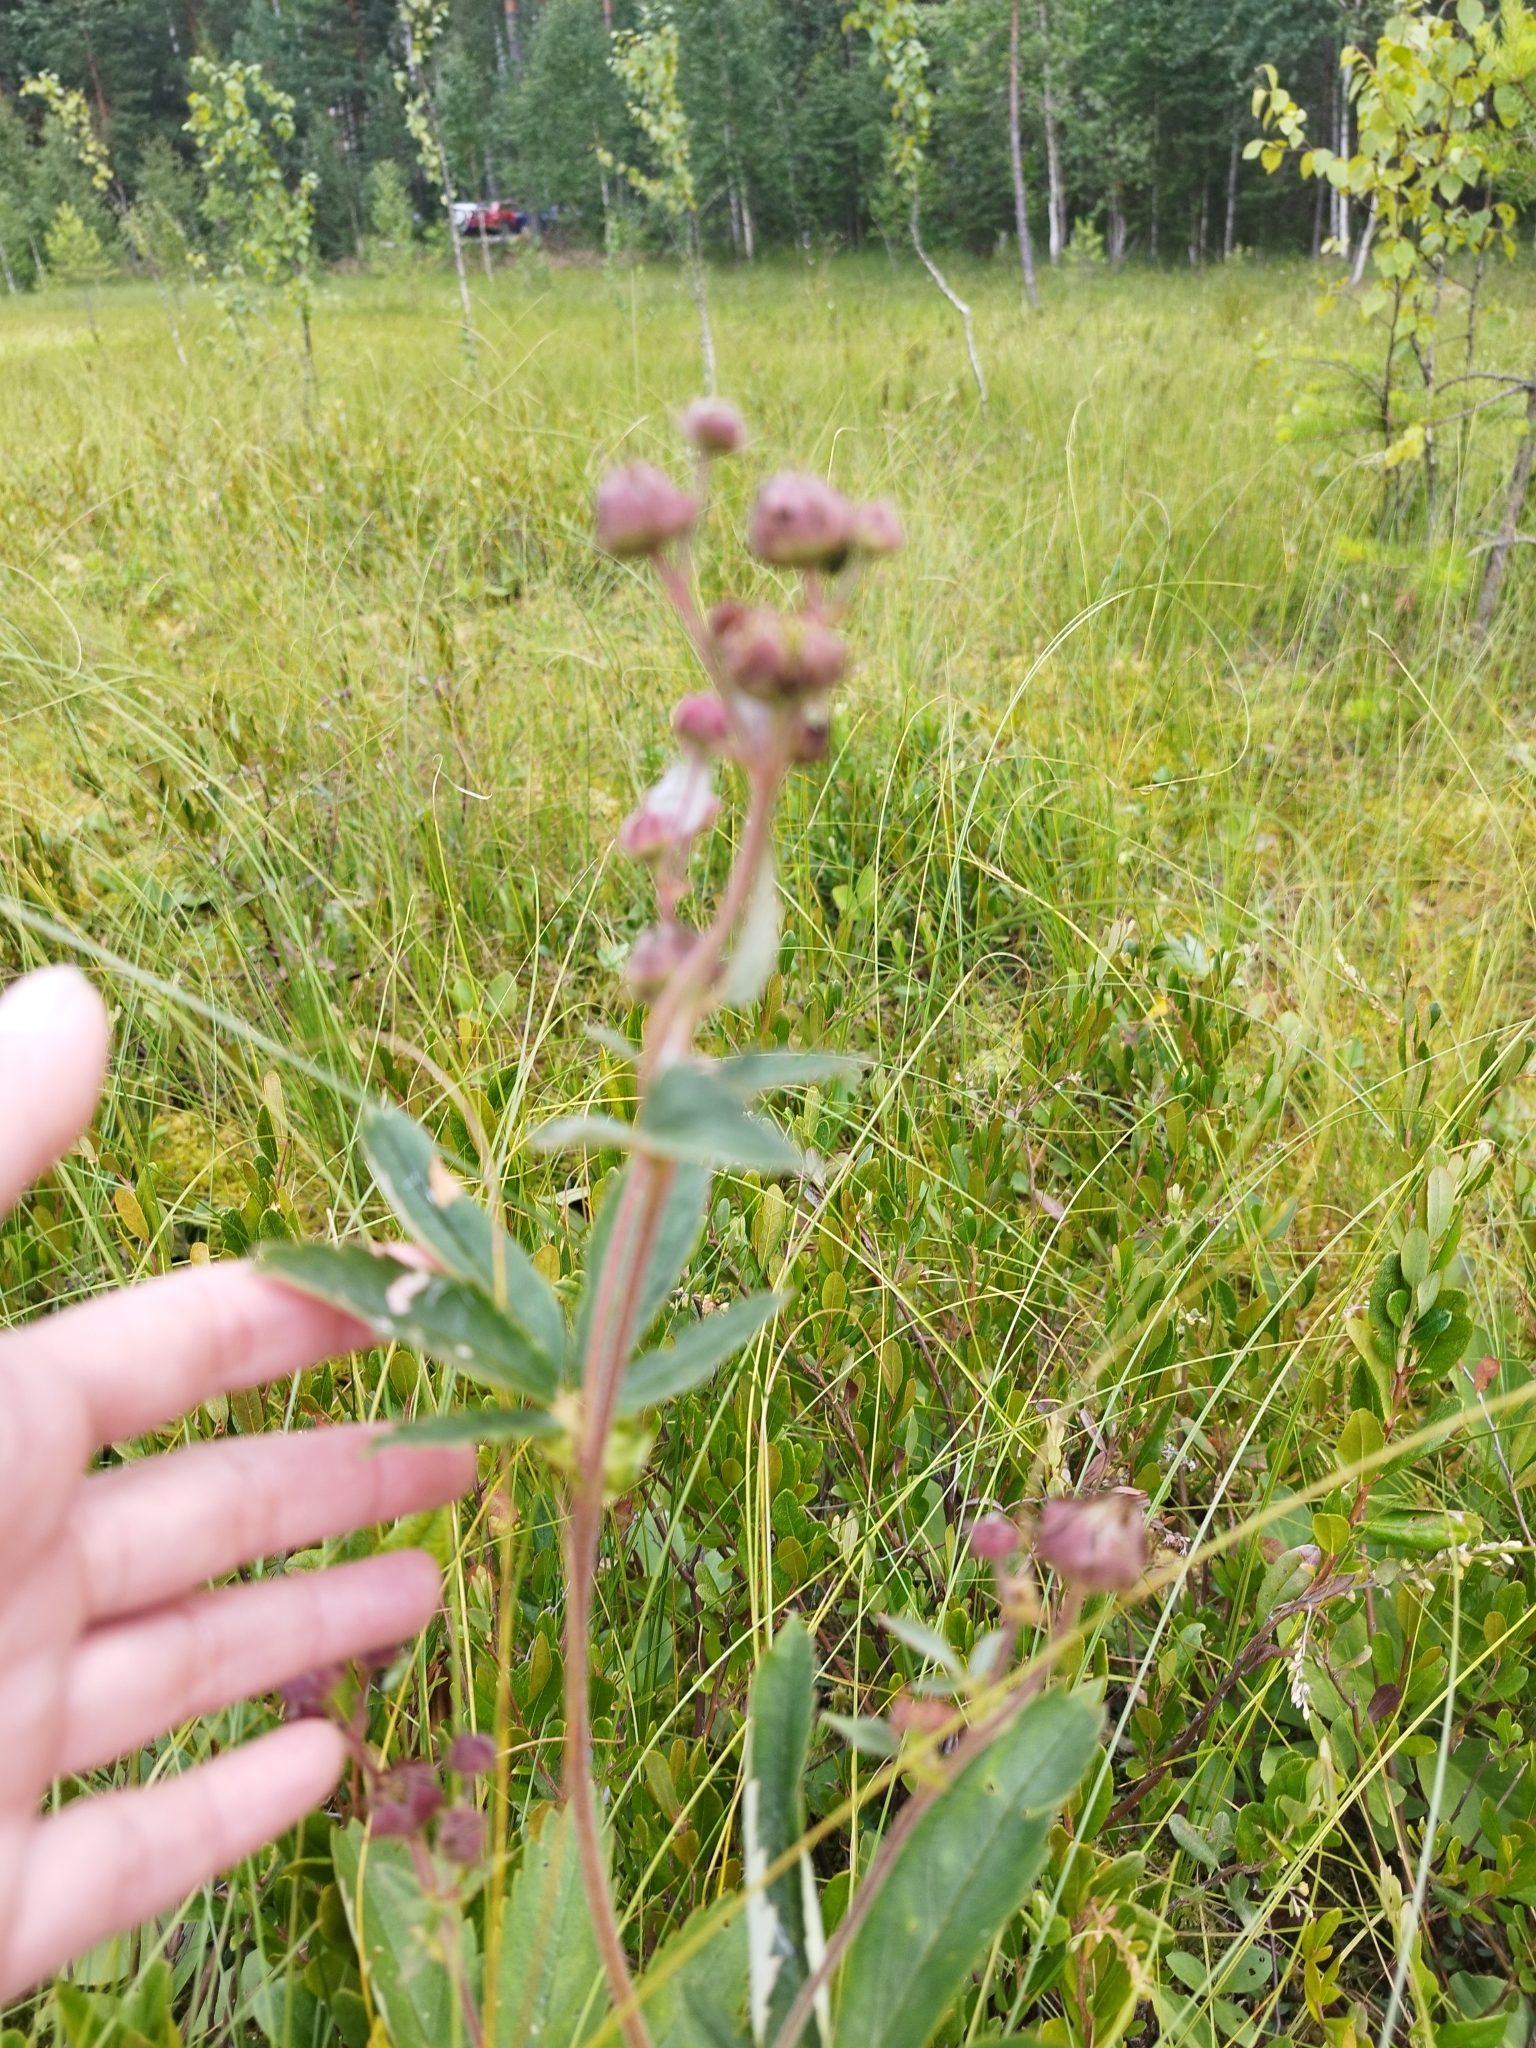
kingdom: Plantae
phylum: Tracheophyta
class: Magnoliopsida
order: Rosales
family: Rosaceae
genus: Comarum
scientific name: Comarum palustre
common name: Marsh cinquefoil
